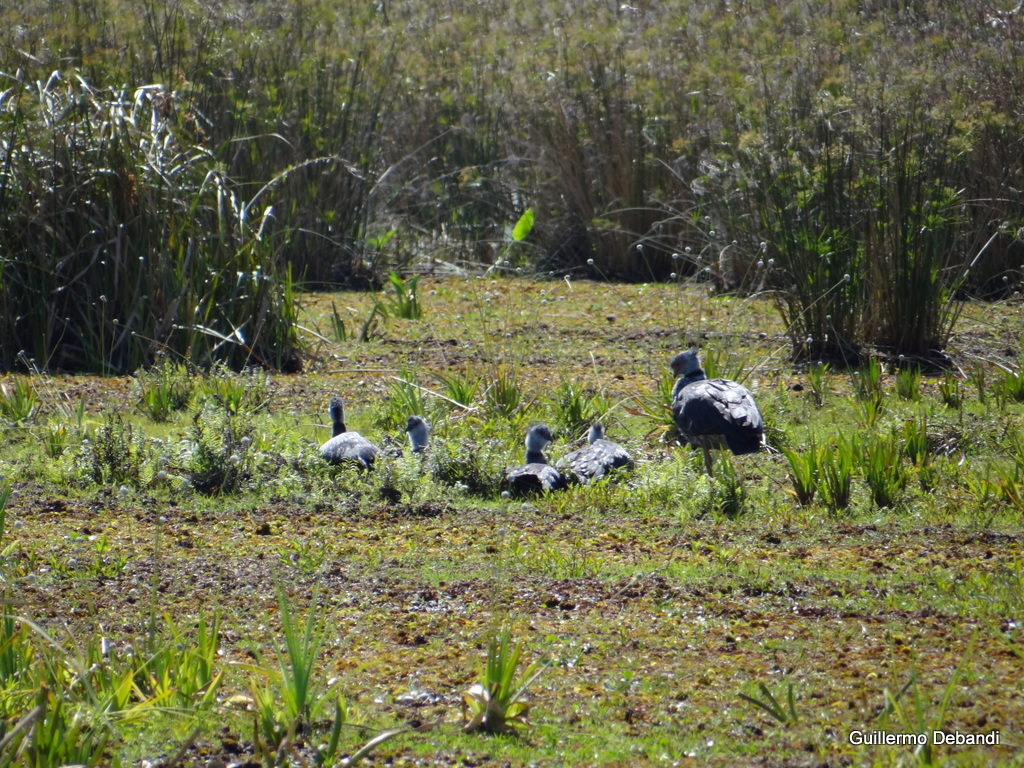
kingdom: Animalia
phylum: Chordata
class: Aves
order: Anseriformes
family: Anhimidae
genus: Chauna
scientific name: Chauna torquata
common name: Southern screamer
